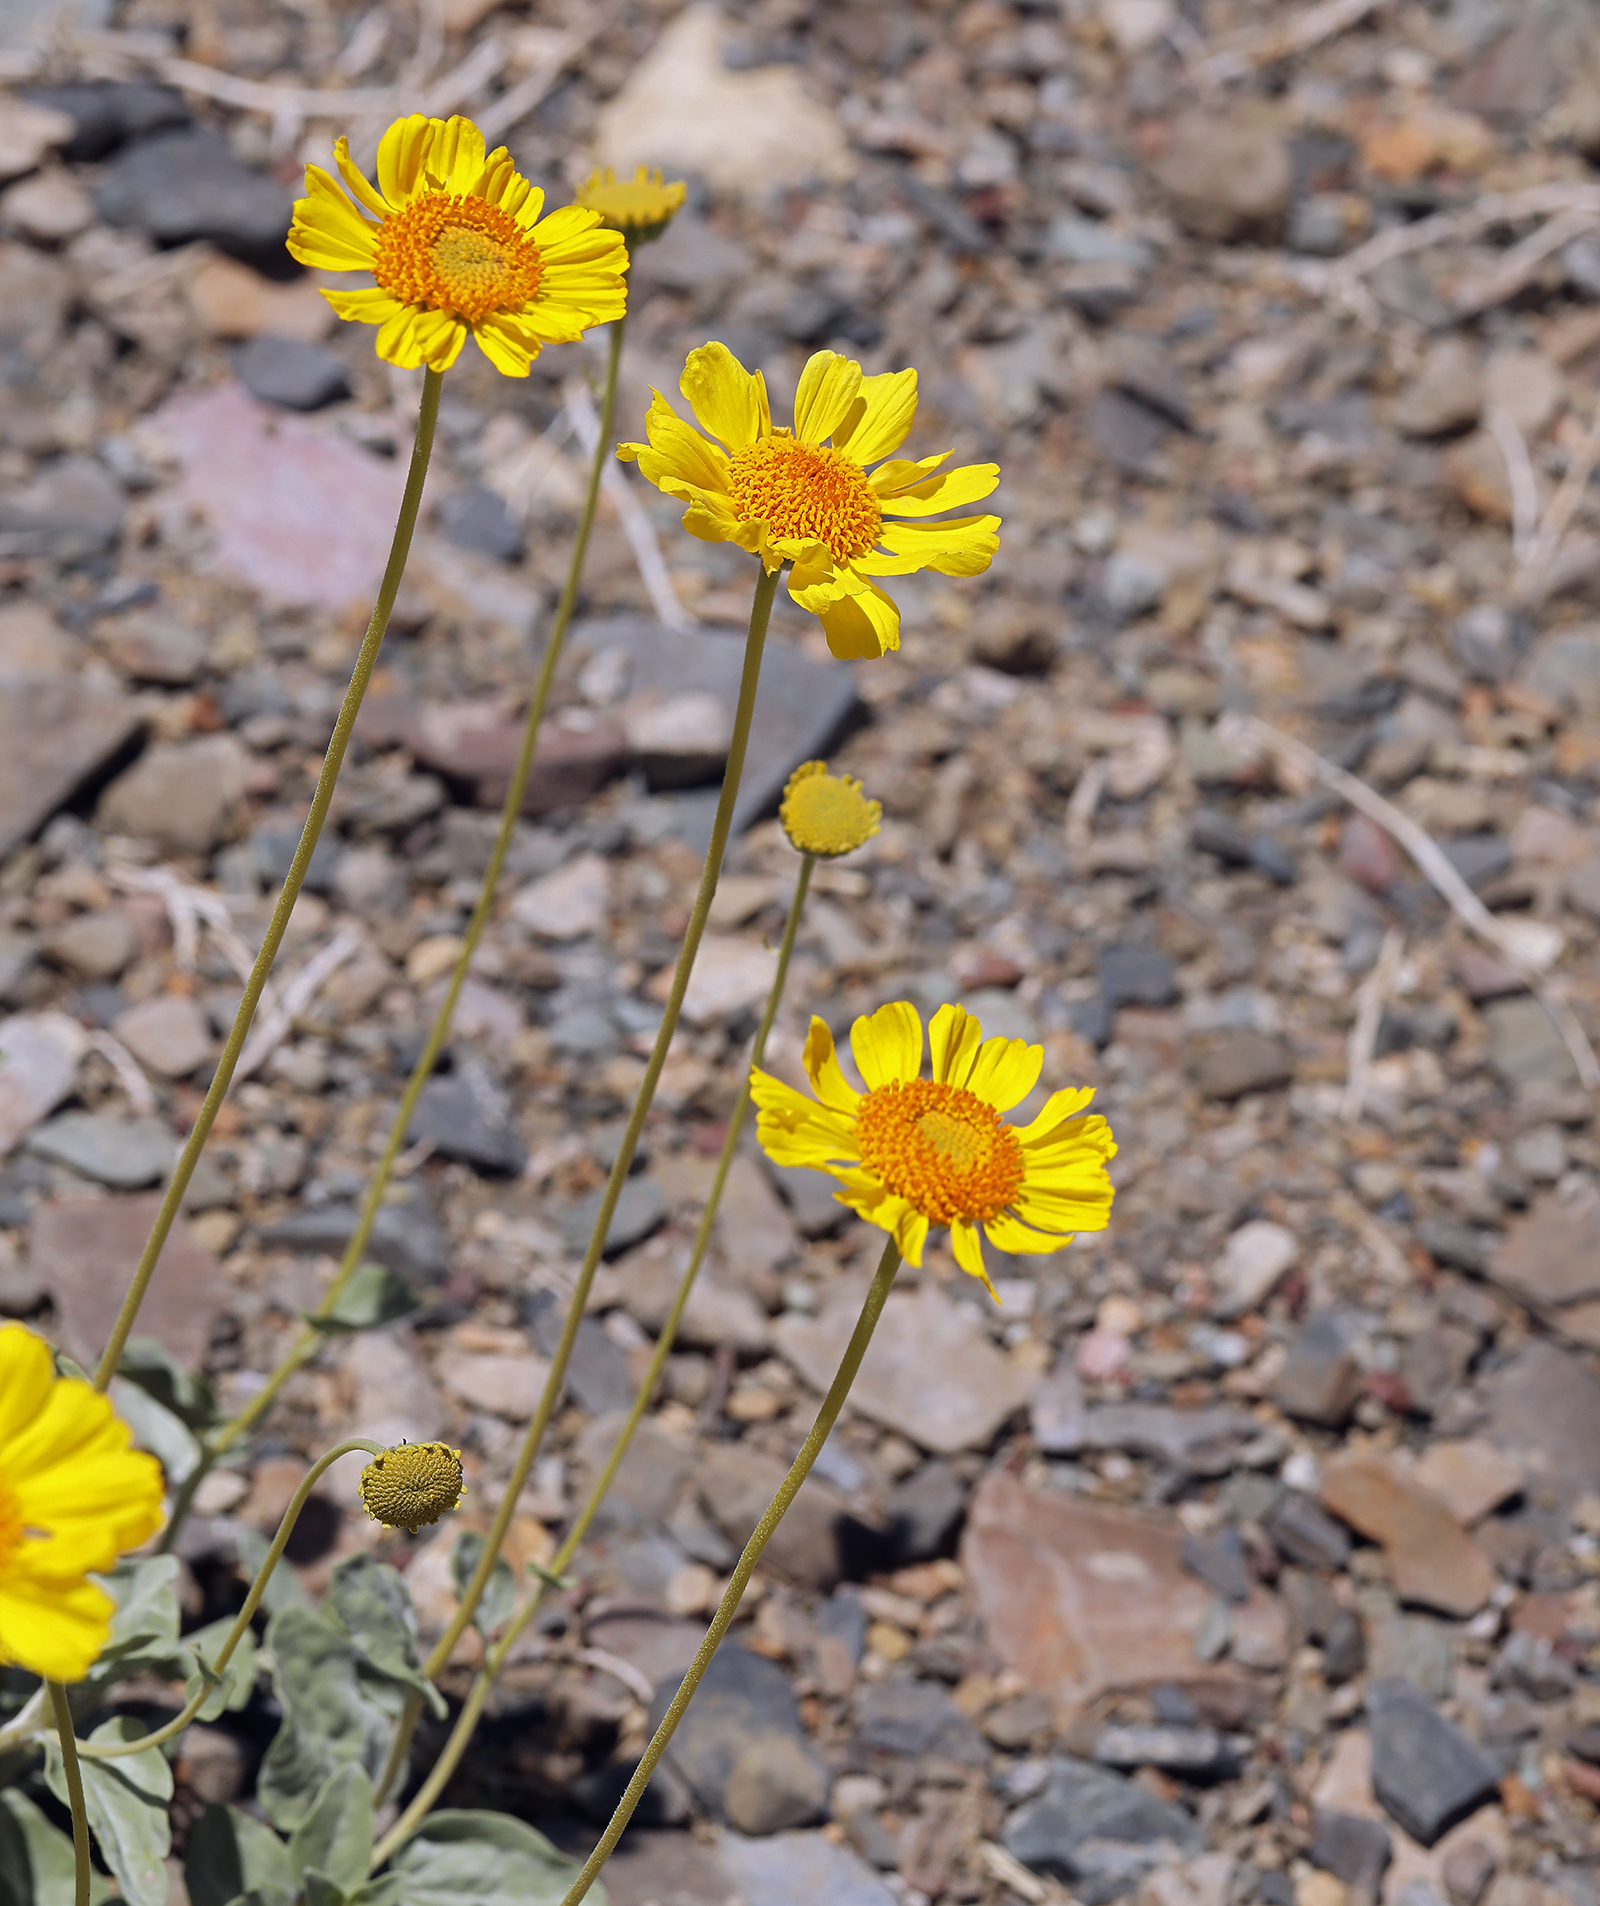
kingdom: Plantae
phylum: Tracheophyta
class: Magnoliopsida
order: Asterales
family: Asteraceae
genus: Encelia
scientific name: Encelia actoni
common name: Acton encelia
